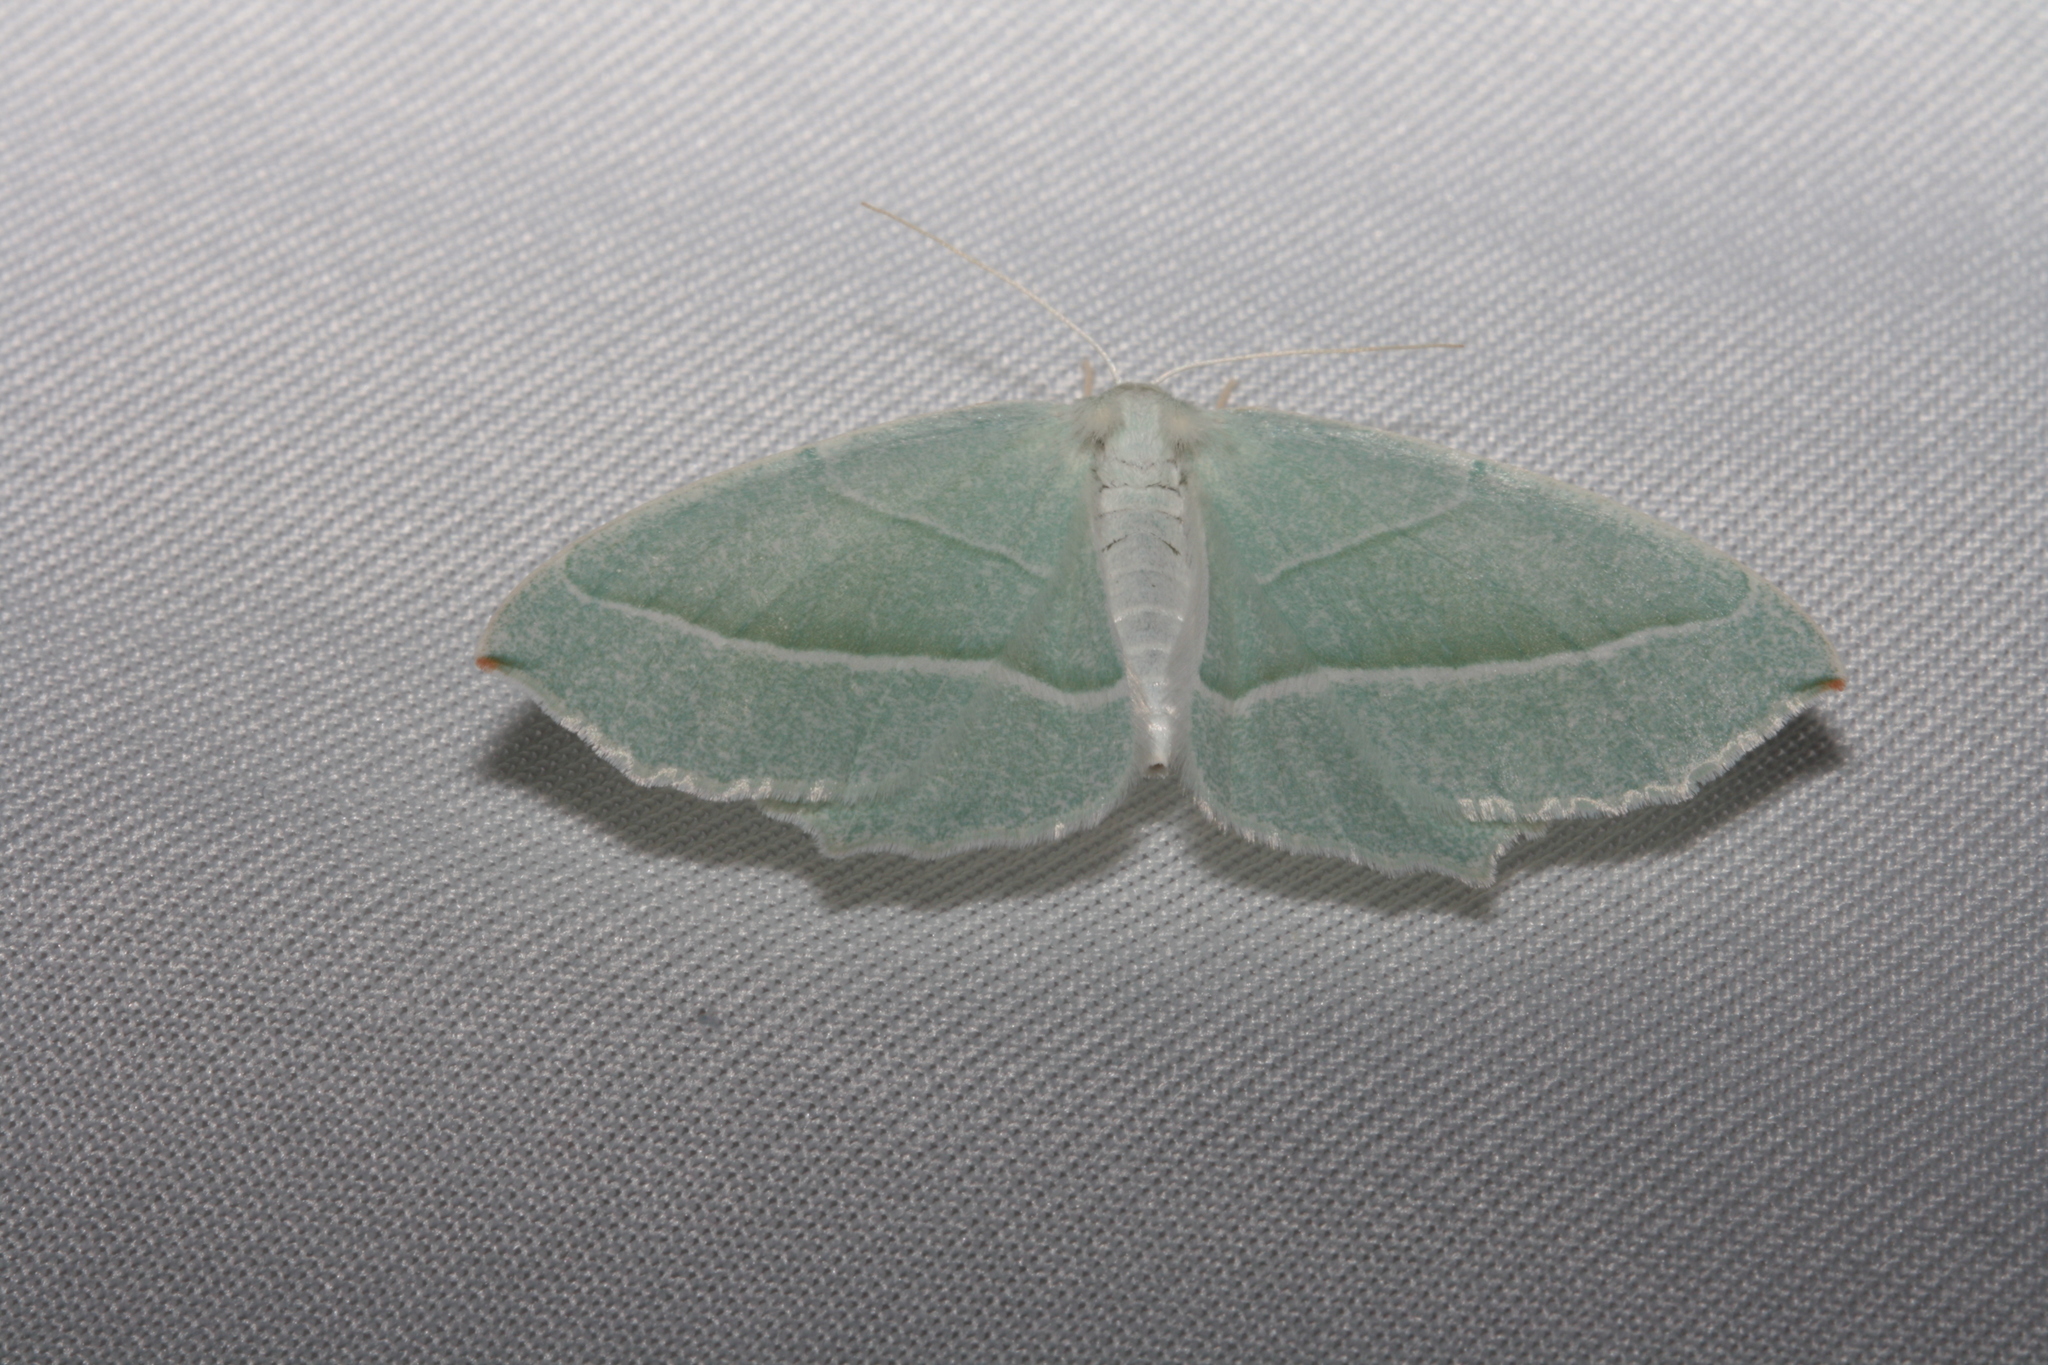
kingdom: Animalia
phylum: Arthropoda
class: Insecta
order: Lepidoptera
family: Geometridae
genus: Campaea
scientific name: Campaea margaritaria
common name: Light emerald
